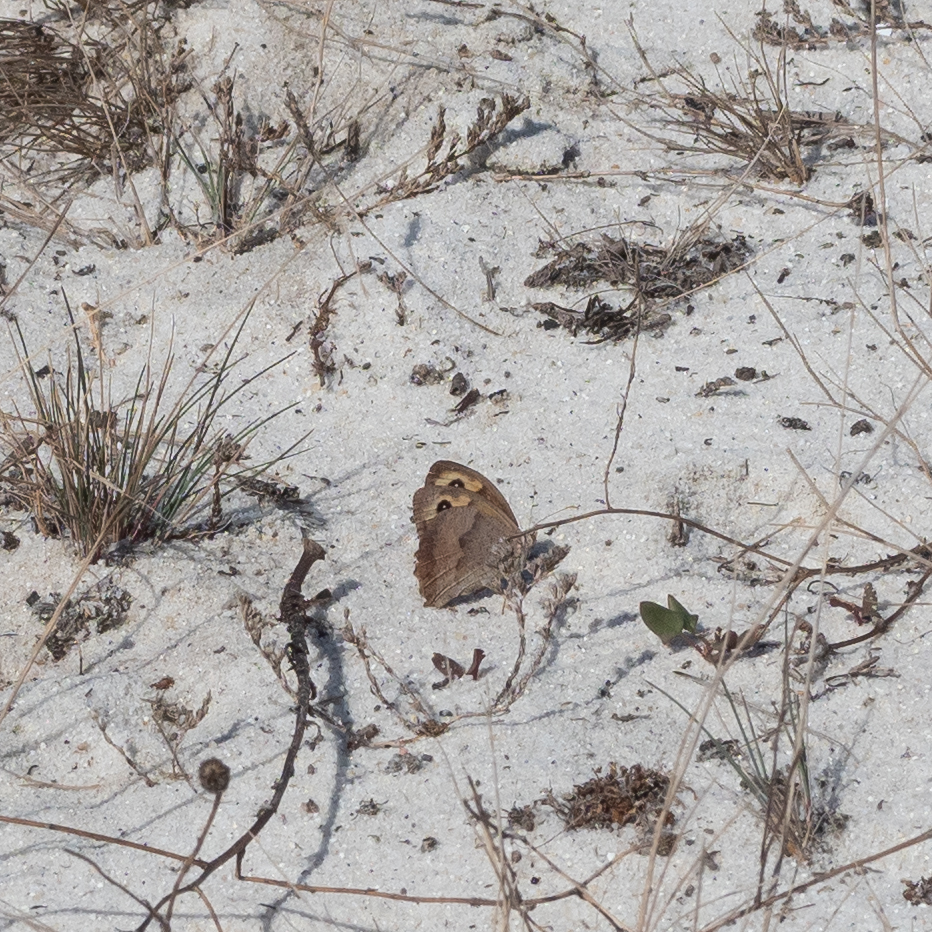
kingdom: Animalia
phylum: Arthropoda
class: Insecta
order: Lepidoptera
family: Nymphalidae
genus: Maniola
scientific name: Maniola jurtina
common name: Meadow brown
